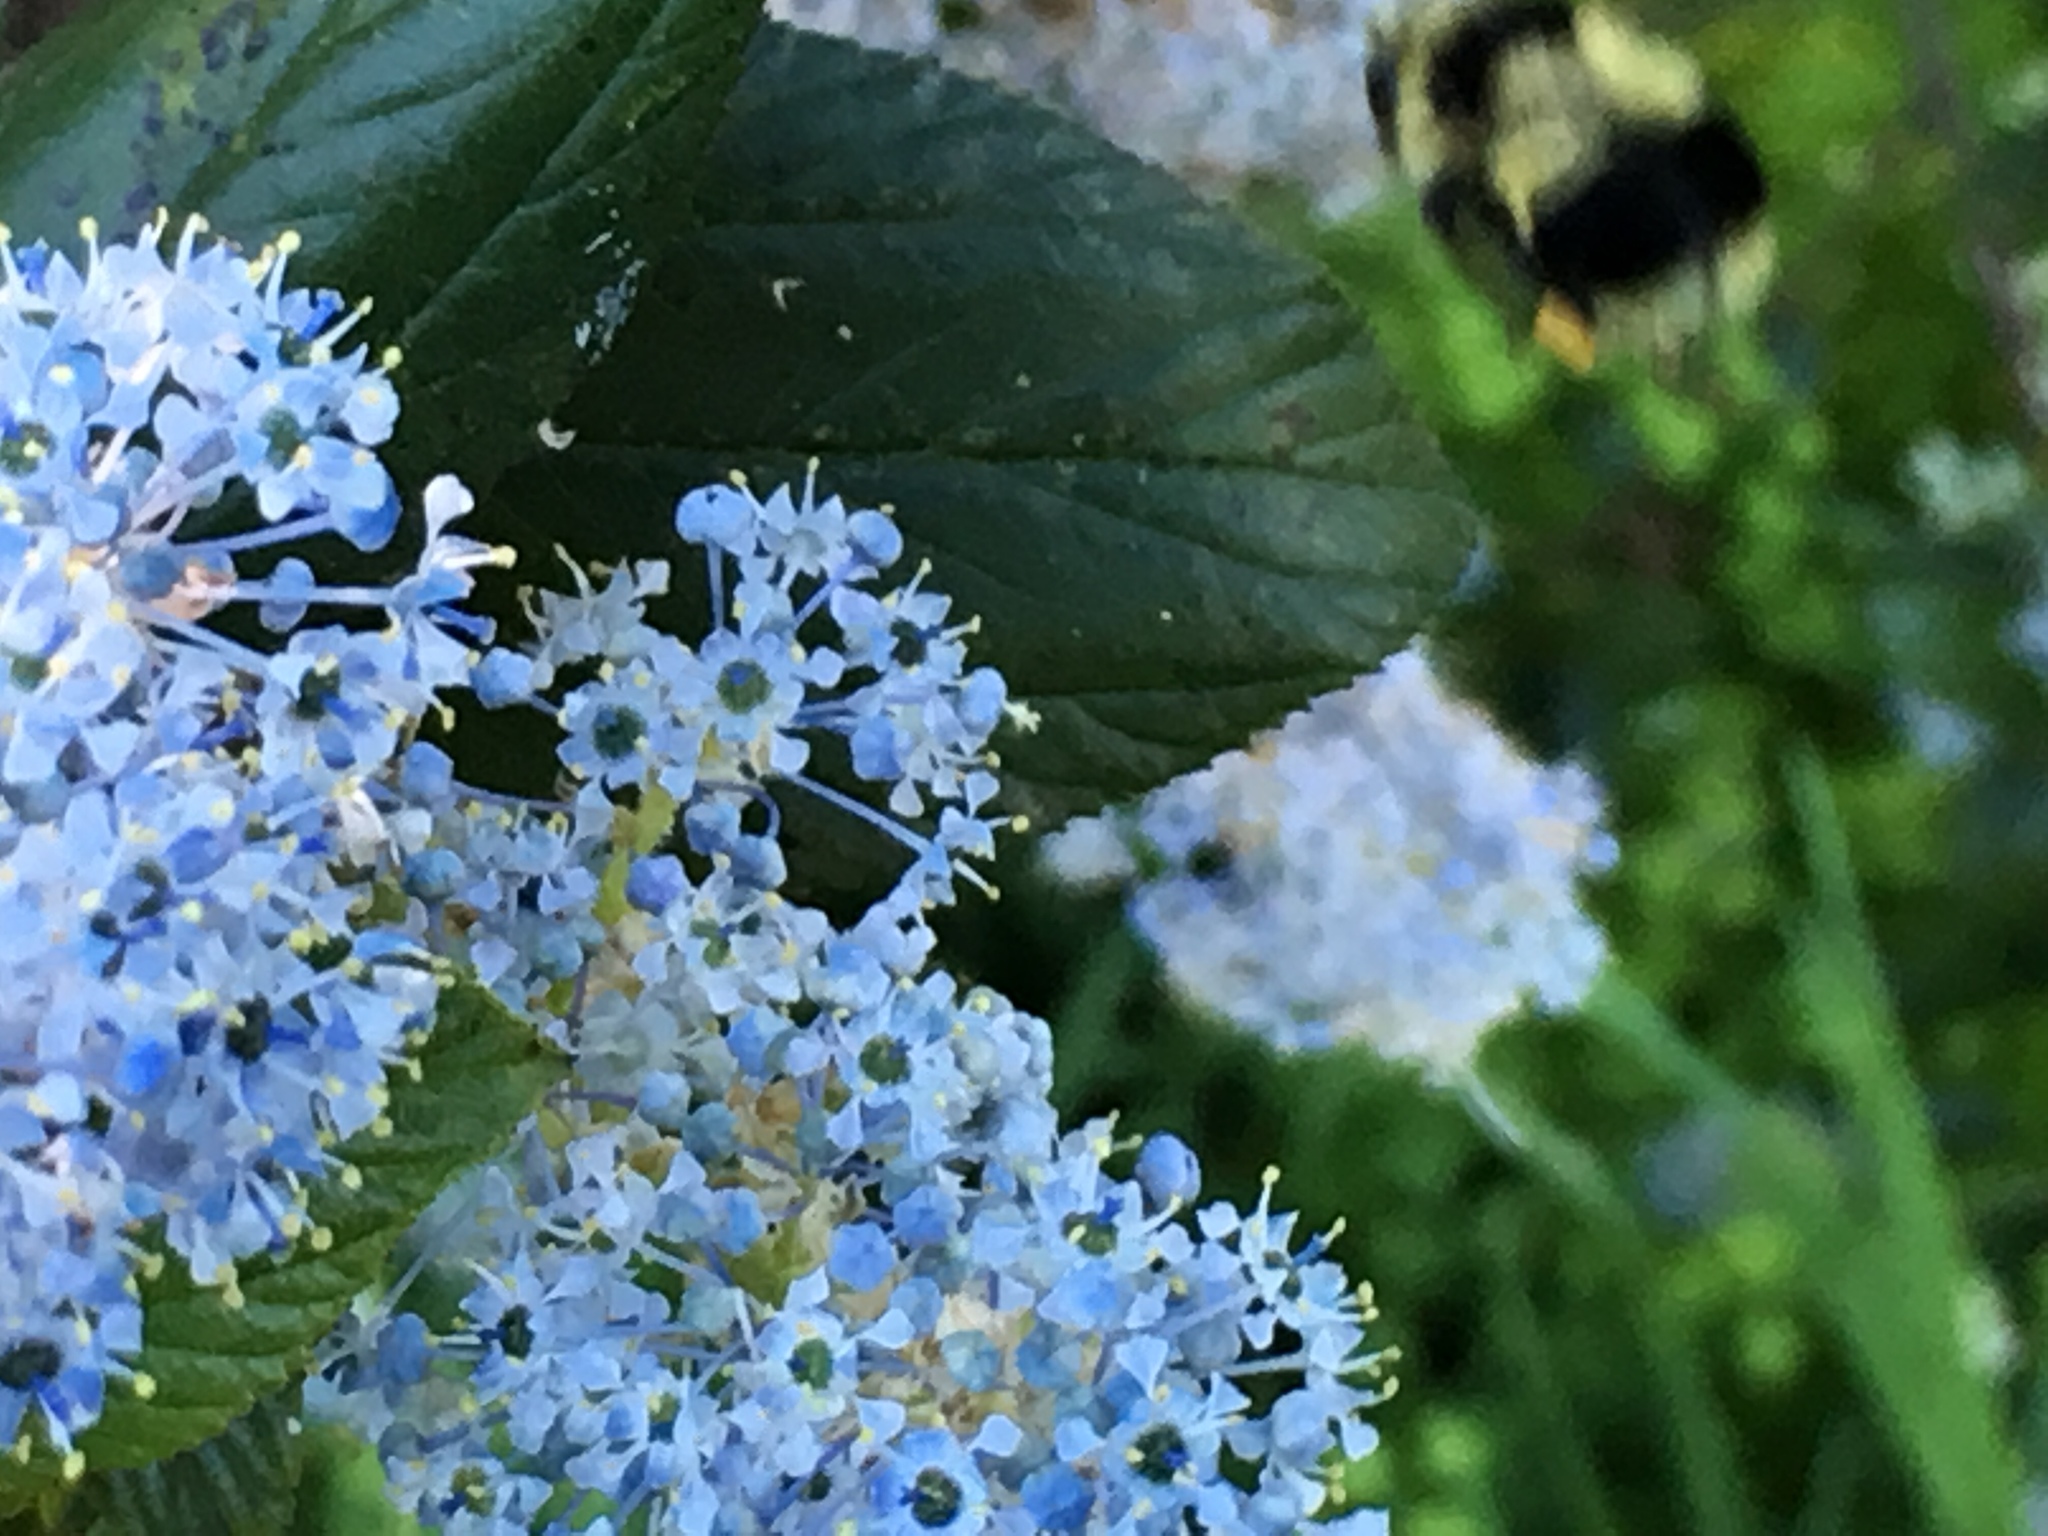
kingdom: Animalia
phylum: Arthropoda
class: Insecta
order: Hymenoptera
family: Apidae
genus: Bombus
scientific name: Bombus melanopygus
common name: Black tail bumble bee
